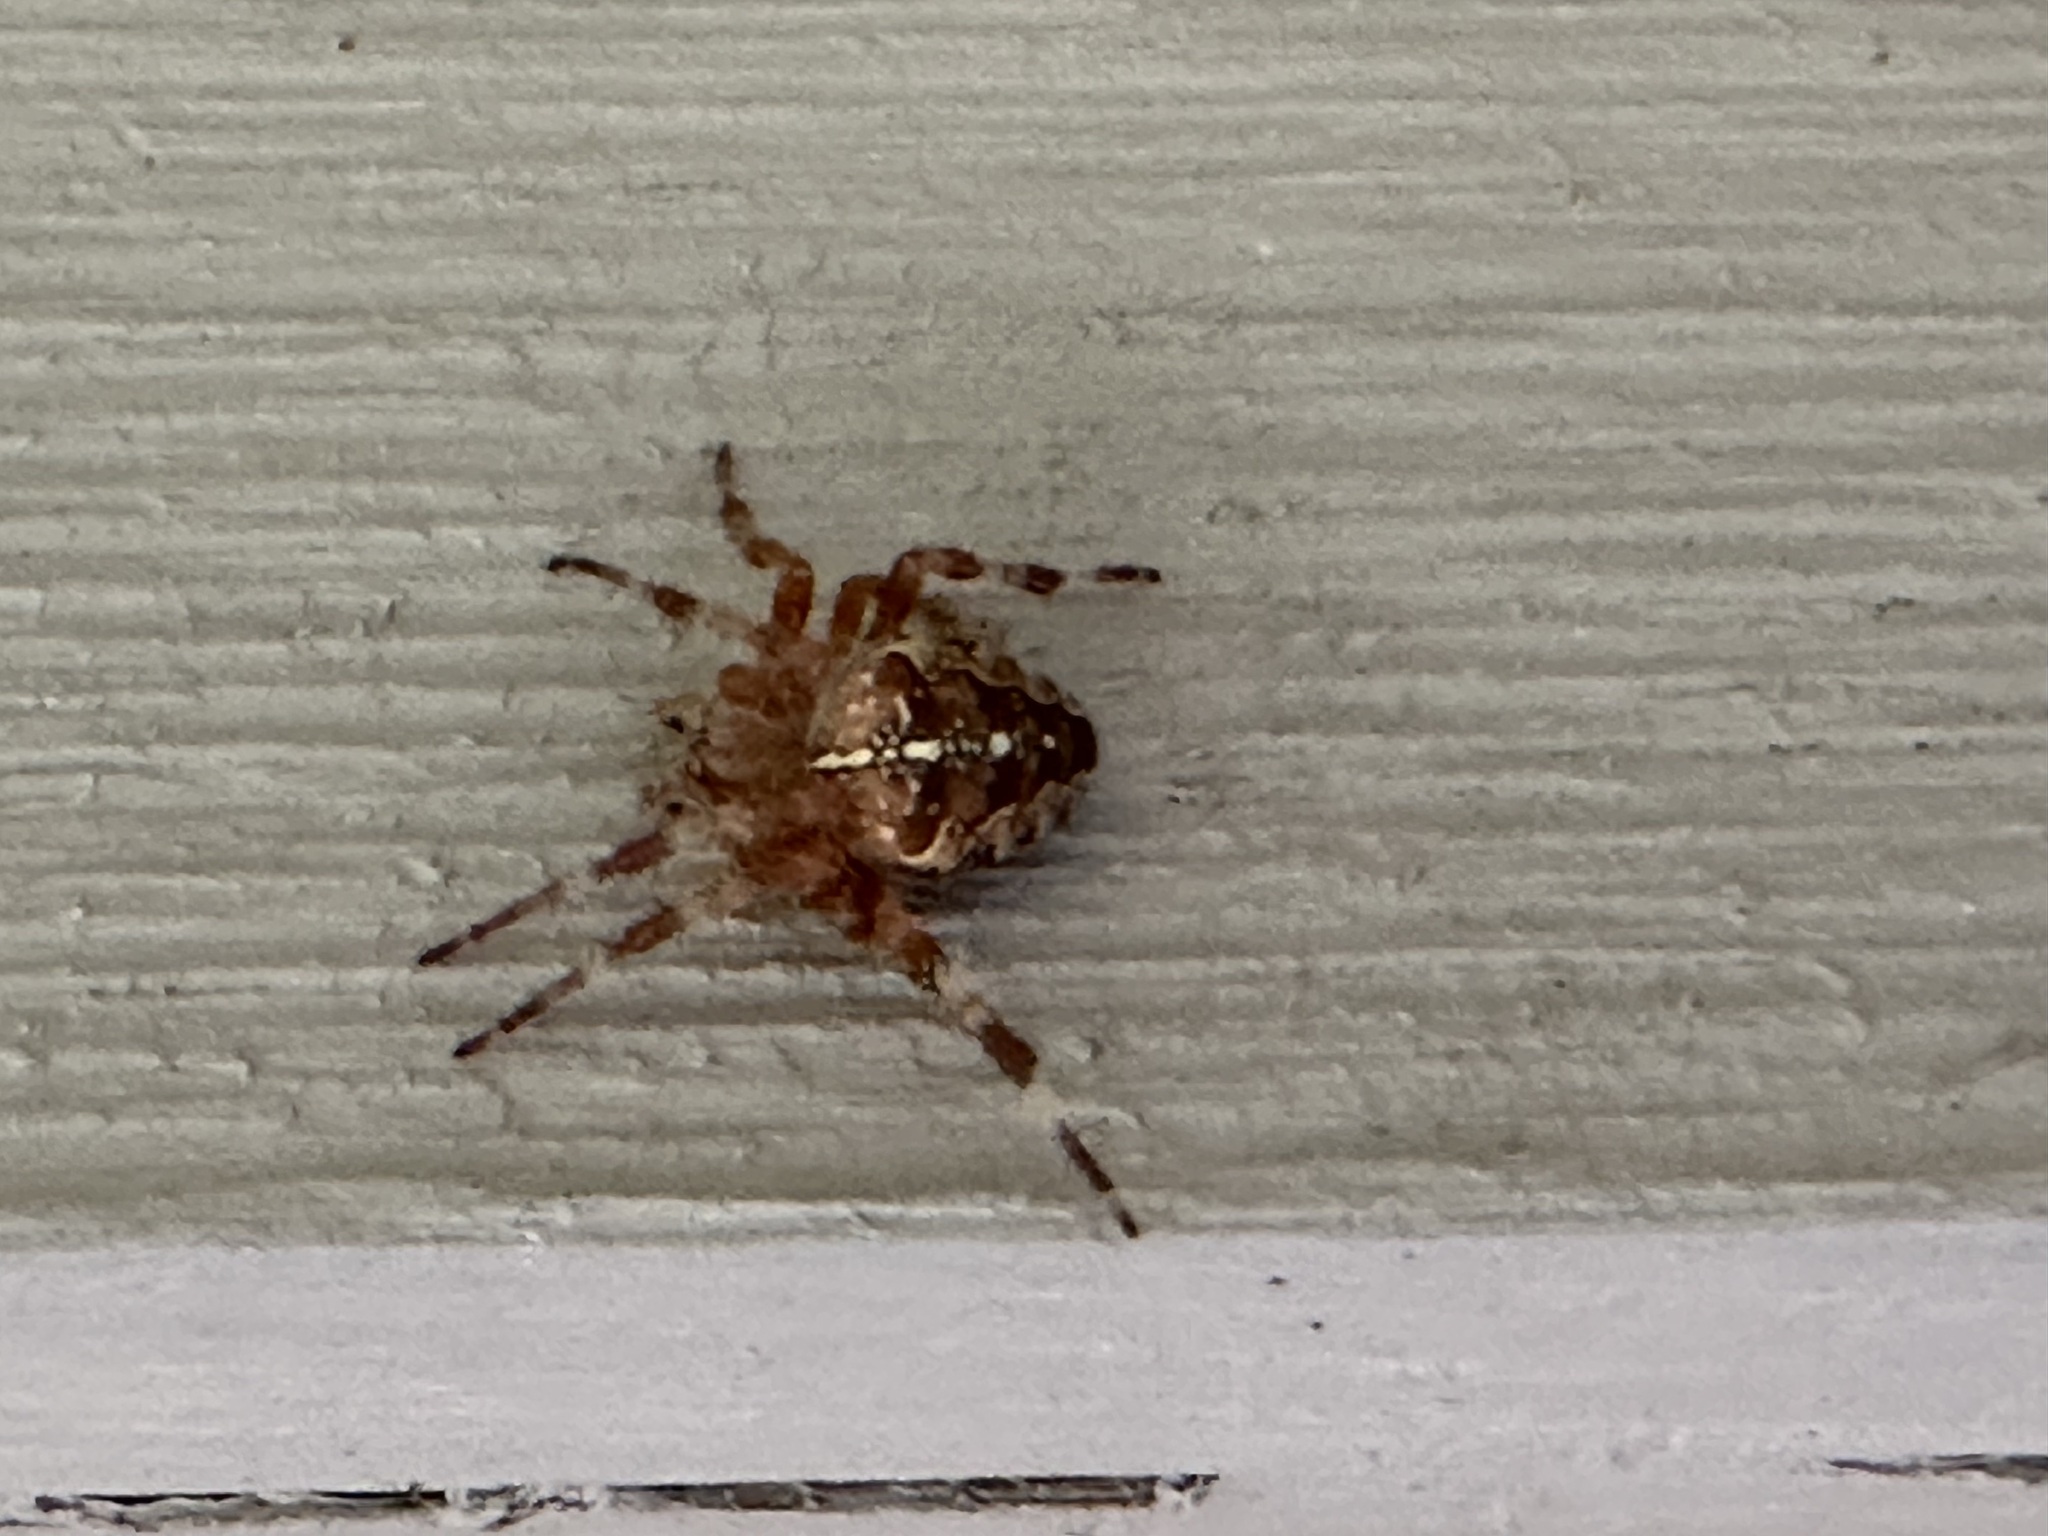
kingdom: Animalia
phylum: Arthropoda
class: Arachnida
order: Araneae
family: Araneidae
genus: Araneus
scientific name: Araneus diadematus
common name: Cross orbweaver
